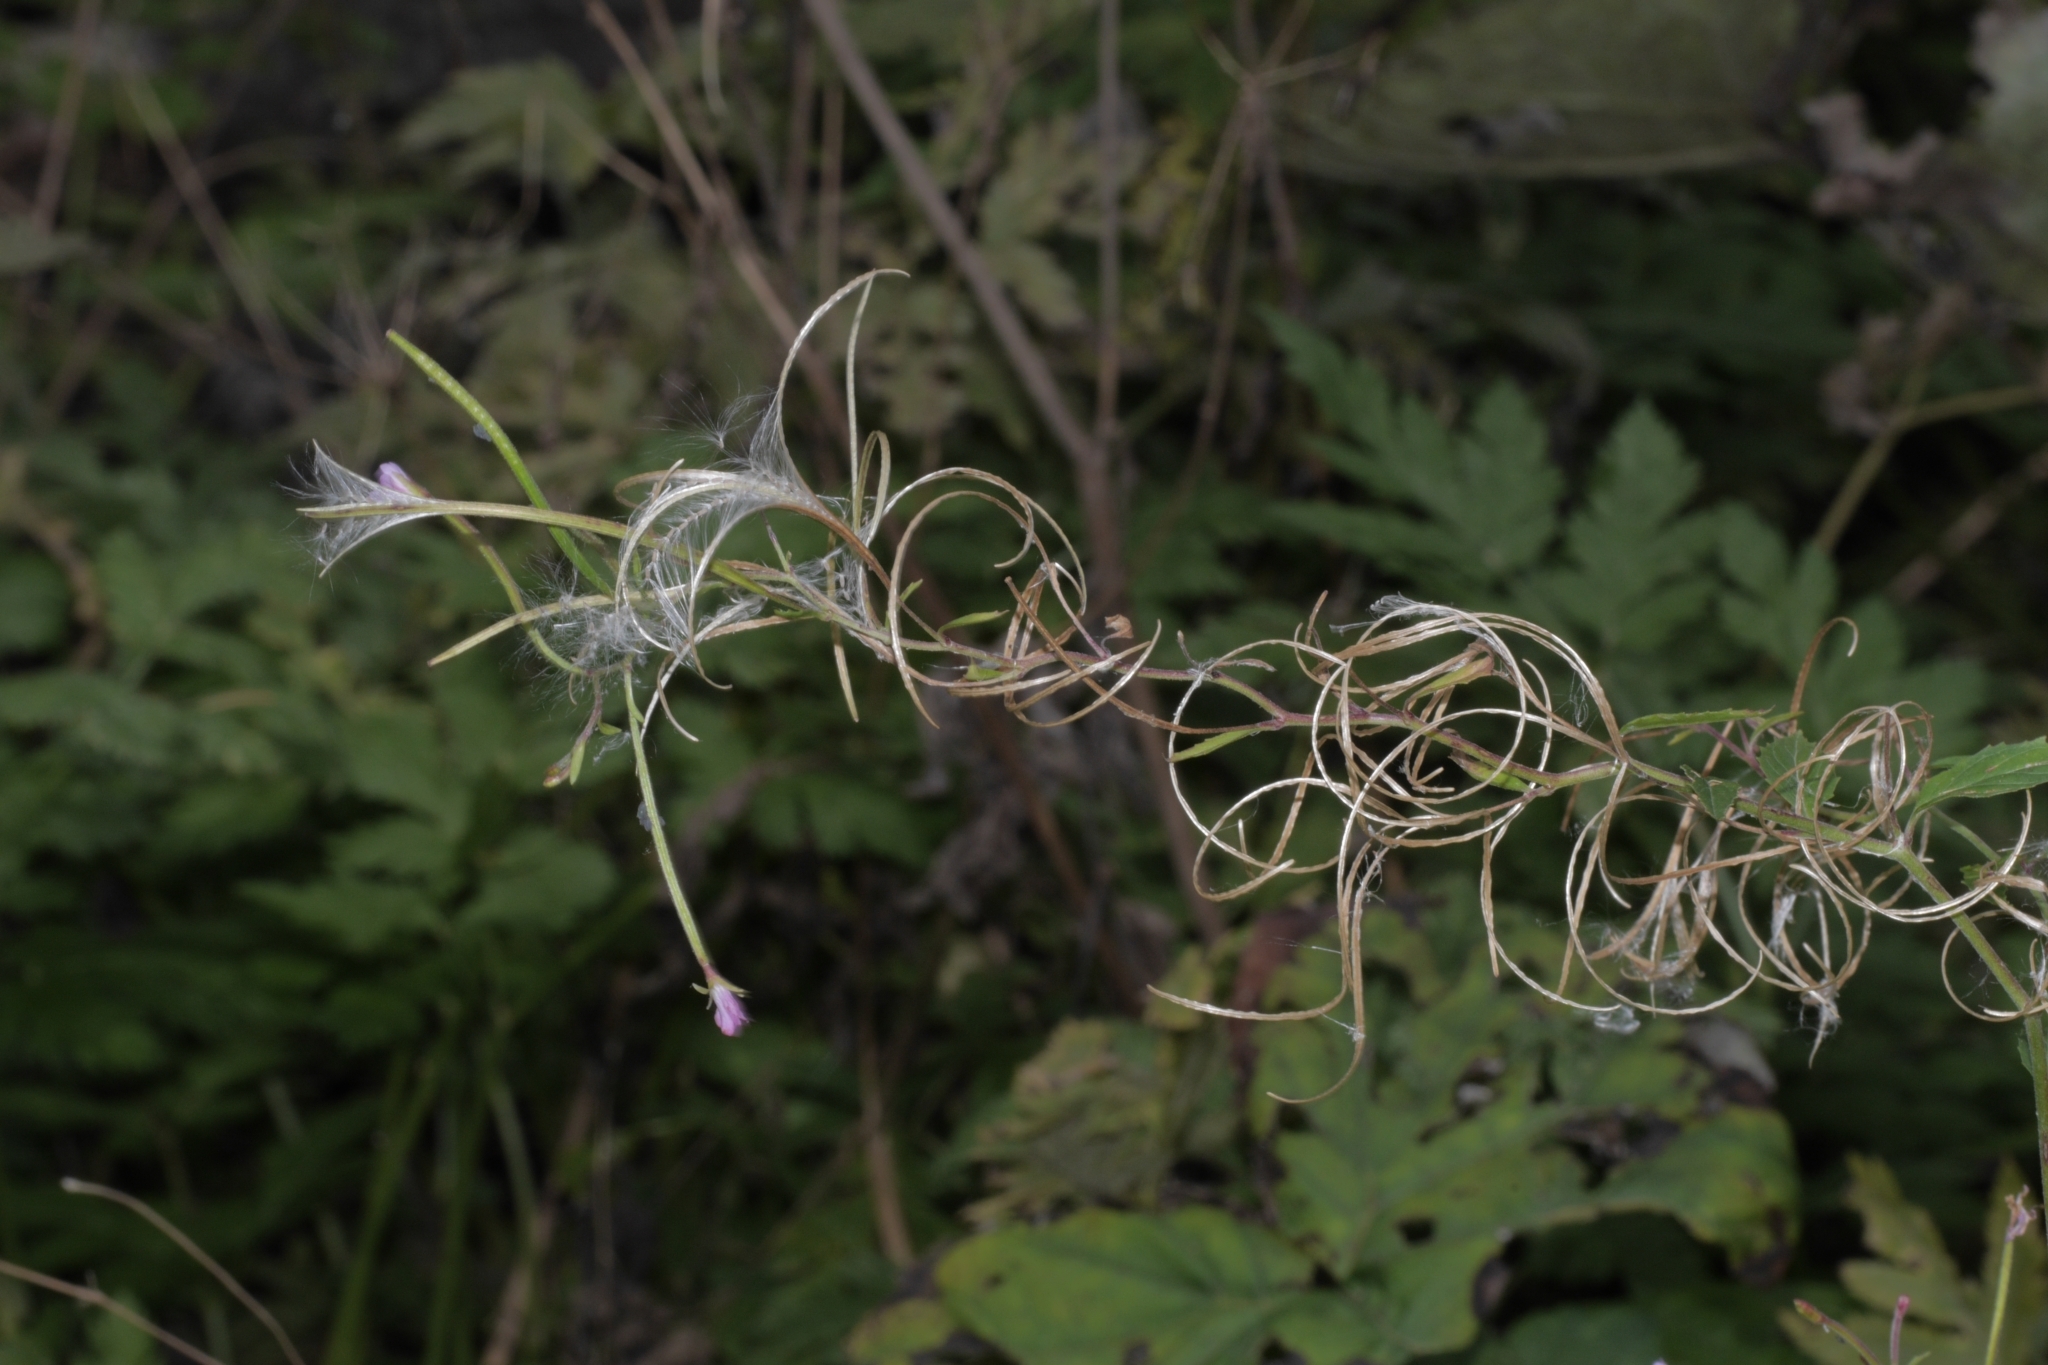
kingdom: Plantae
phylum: Tracheophyta
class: Magnoliopsida
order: Myrtales
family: Onagraceae
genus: Chamaenerion
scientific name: Chamaenerion angustifolium
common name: Fireweed
